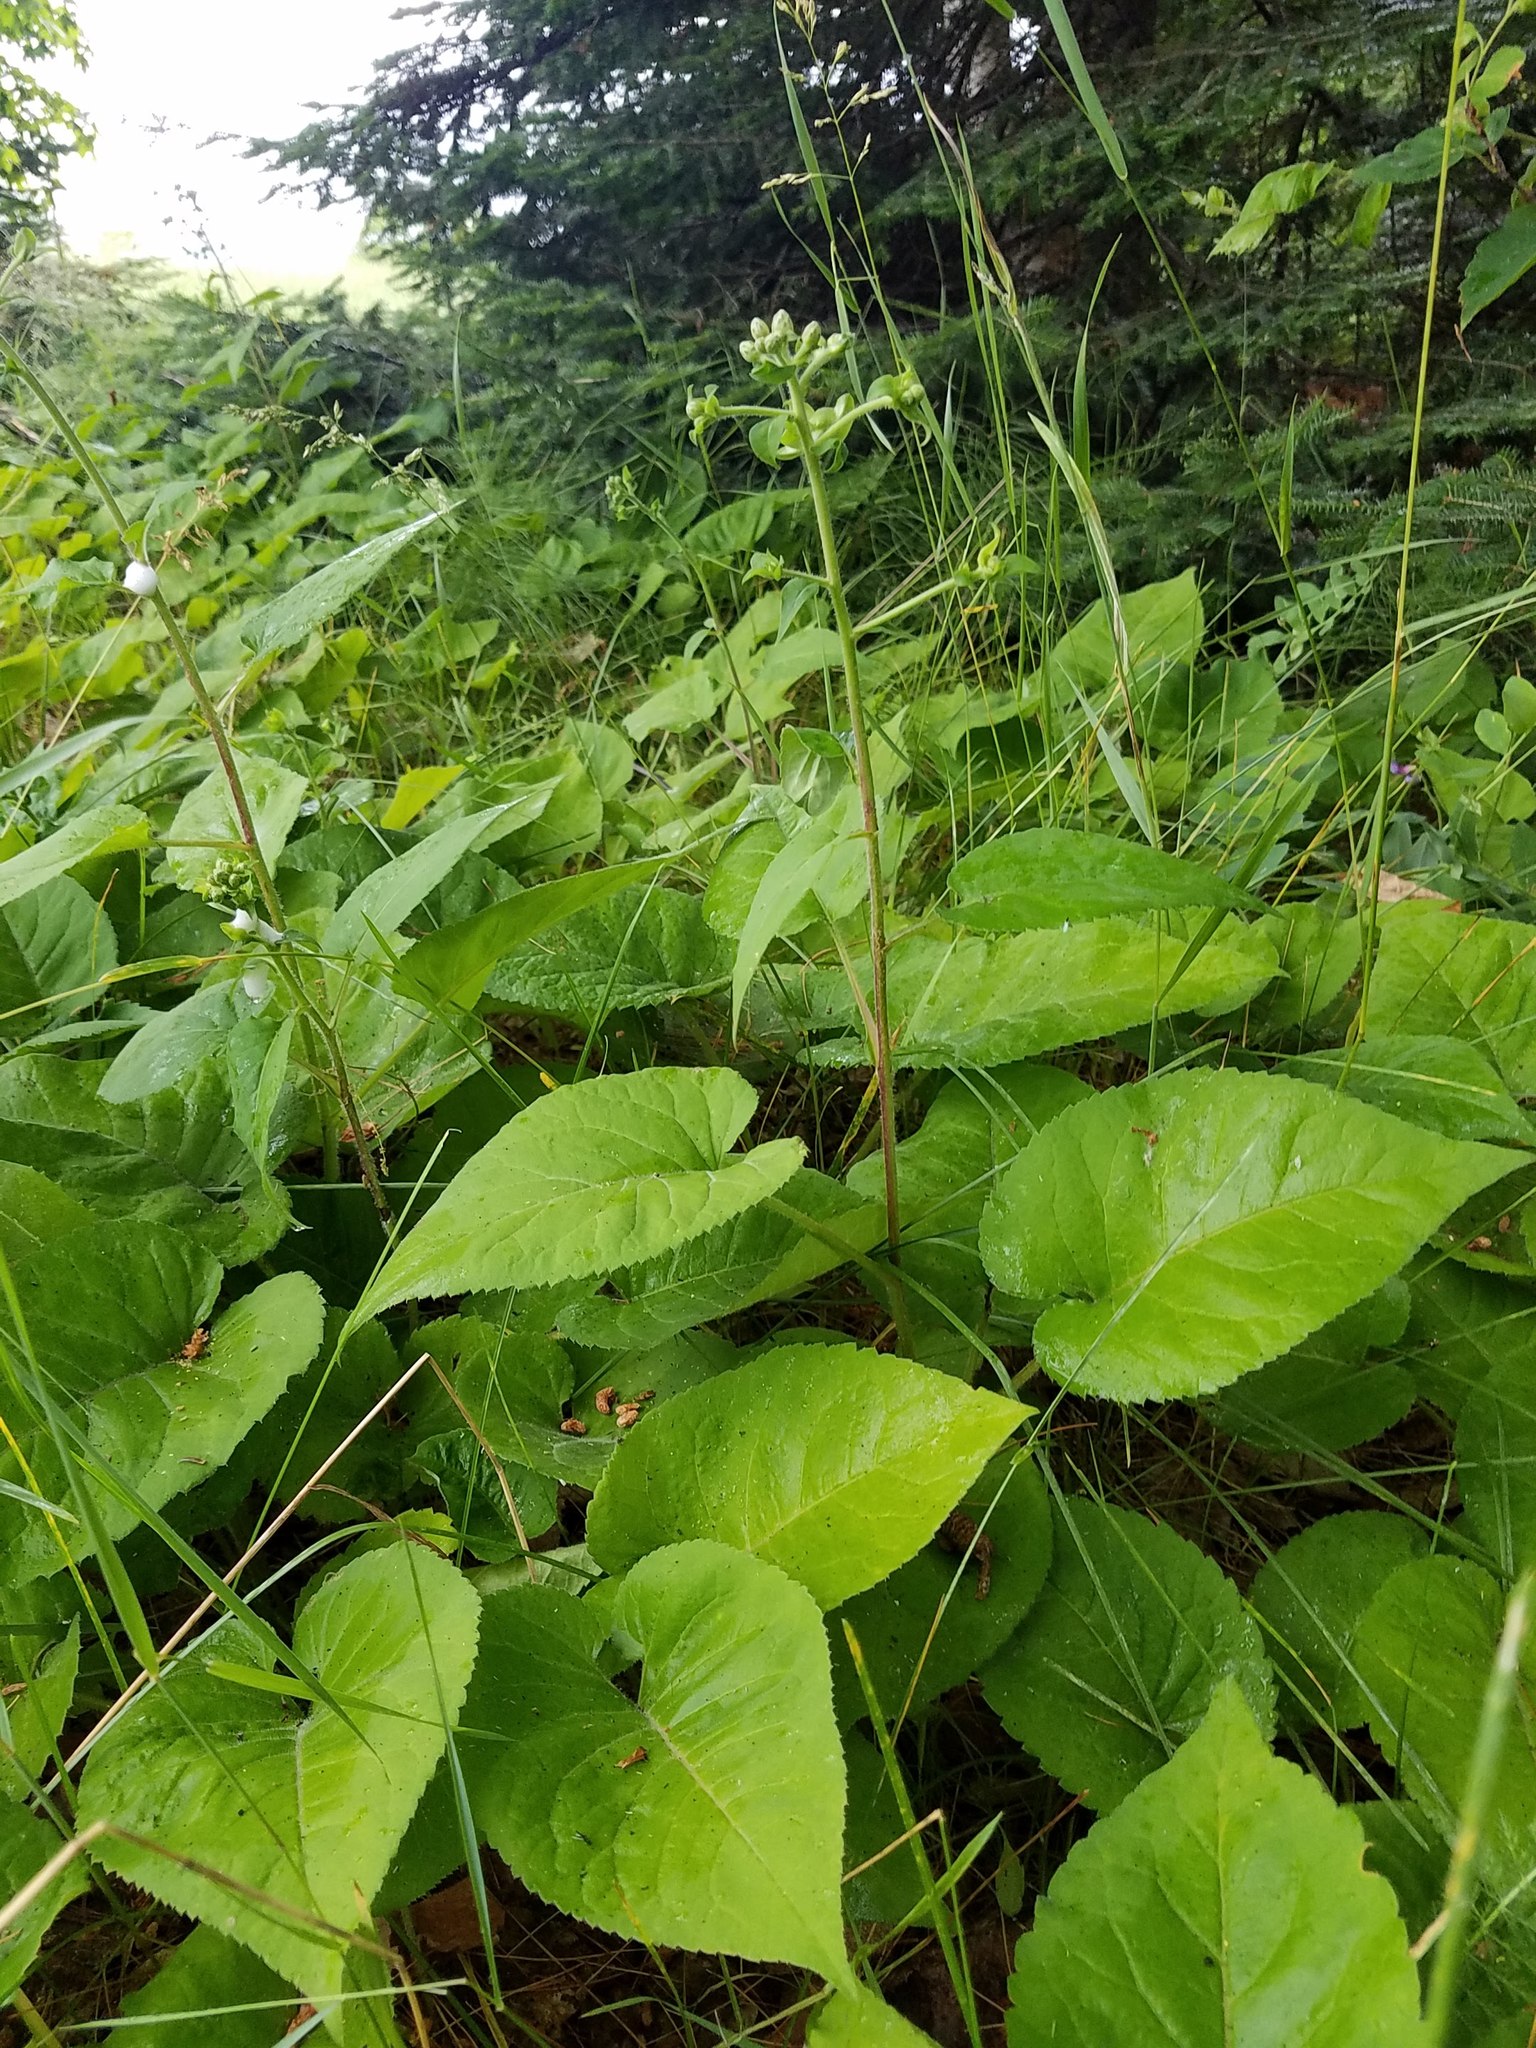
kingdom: Plantae
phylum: Tracheophyta
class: Magnoliopsida
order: Asterales
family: Asteraceae
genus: Eurybia
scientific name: Eurybia macrophylla
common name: Big-leaved aster
